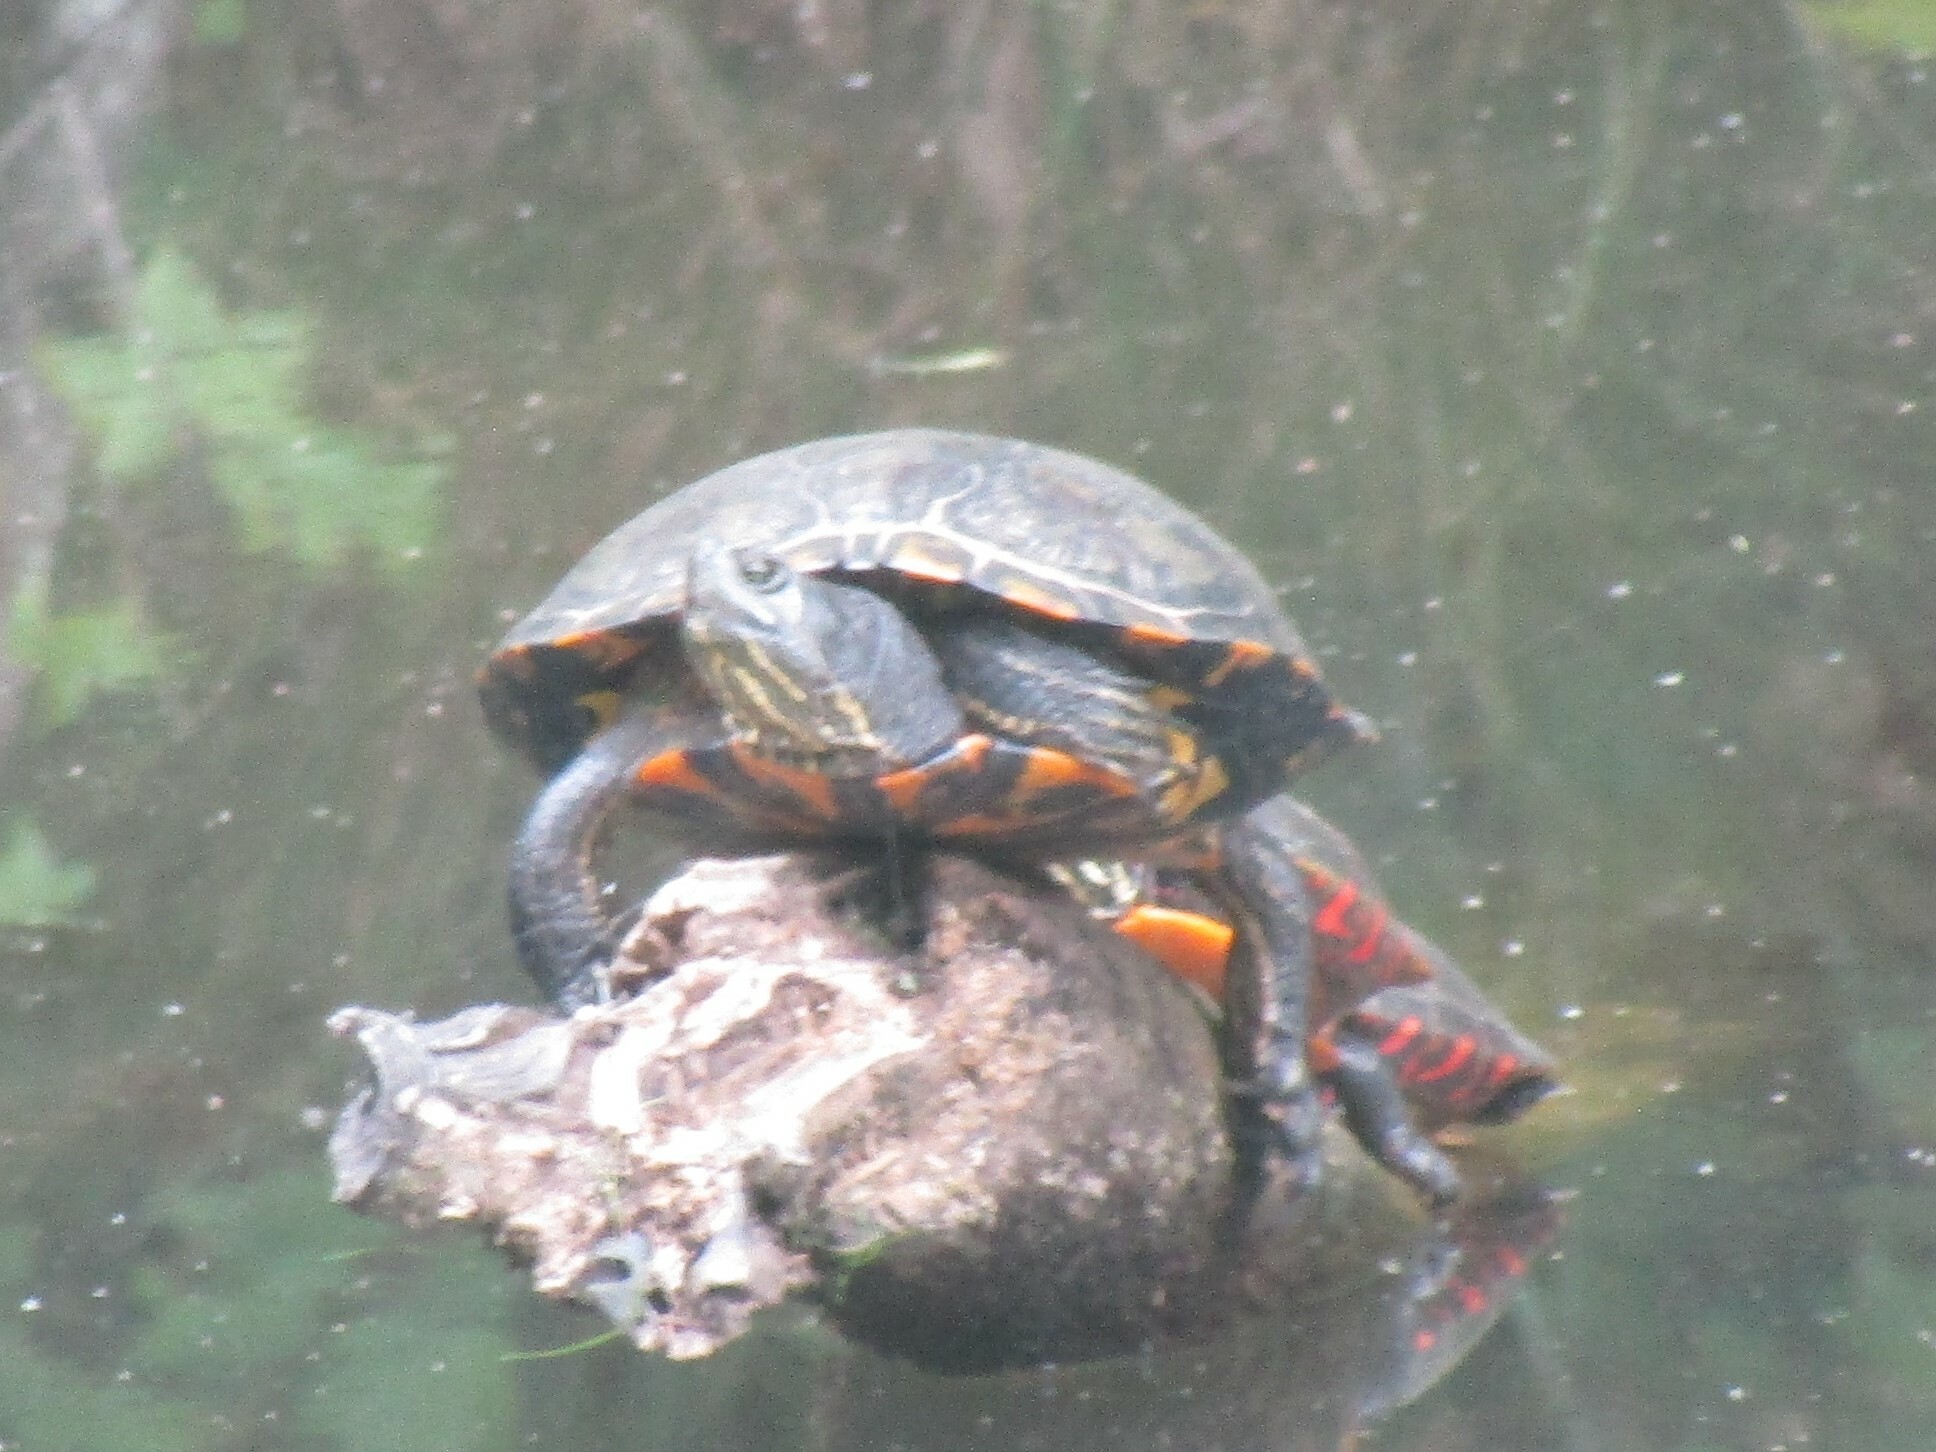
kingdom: Animalia
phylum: Chordata
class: Testudines
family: Emydidae
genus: Chrysemys
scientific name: Chrysemys picta
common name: Painted turtle
